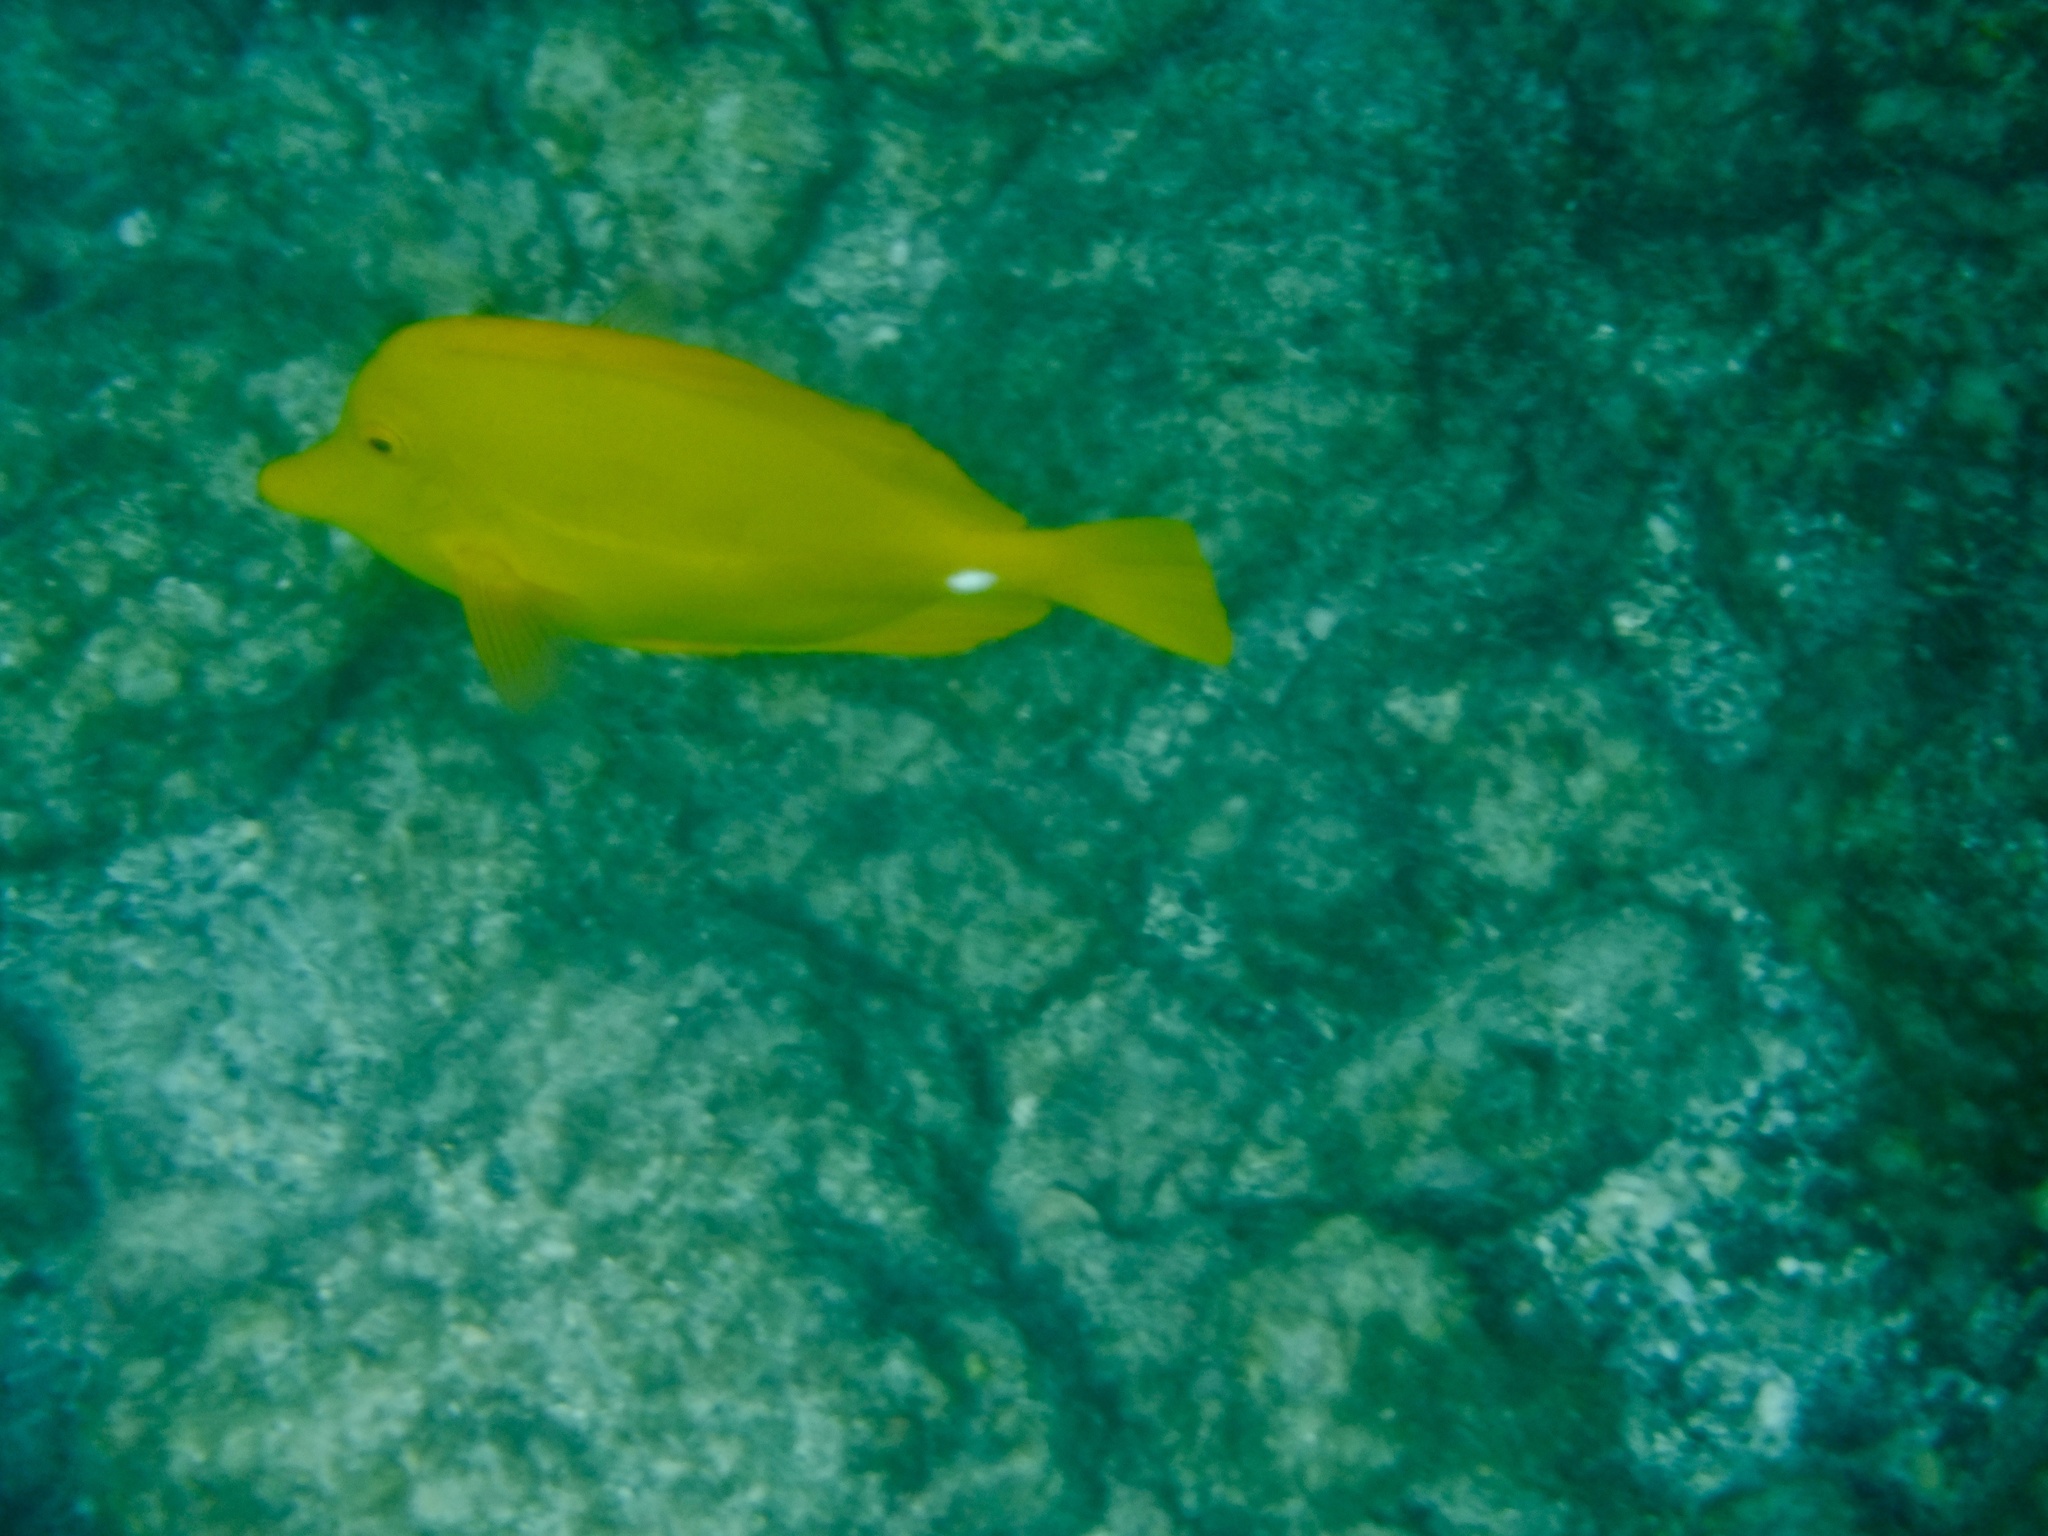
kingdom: Animalia
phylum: Chordata
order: Perciformes
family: Acanthuridae
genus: Zebrasoma
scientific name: Zebrasoma flavescens
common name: Yellow tang
